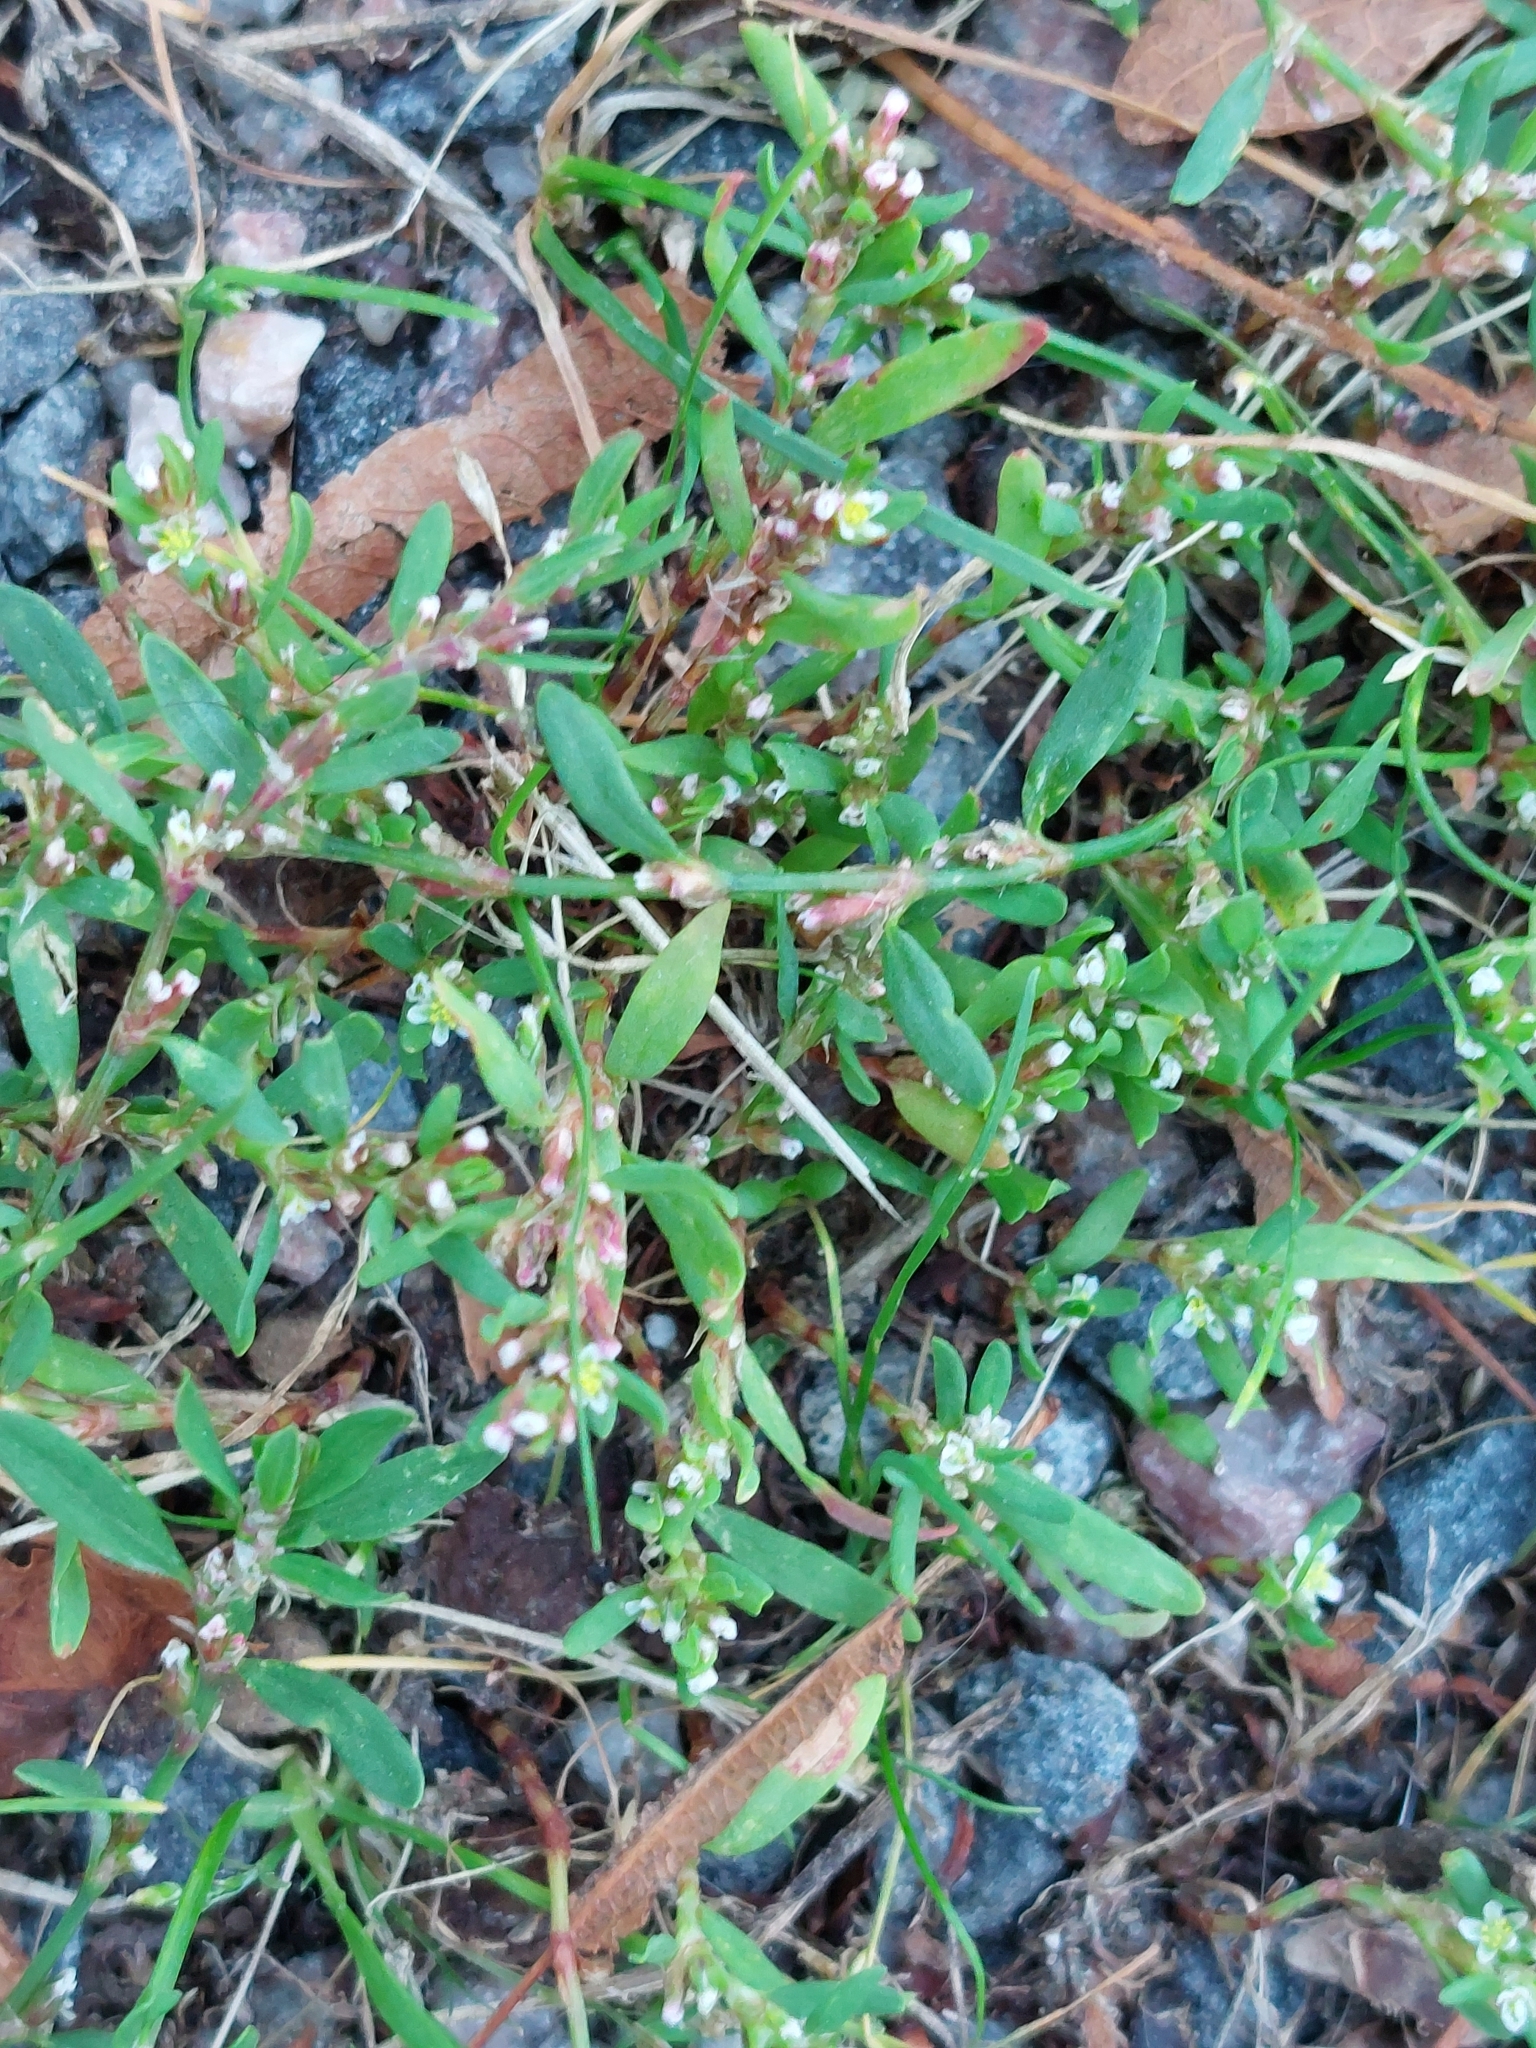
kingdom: Plantae
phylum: Tracheophyta
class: Magnoliopsida
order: Caryophyllales
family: Polygonaceae
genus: Polygonum
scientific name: Polygonum aviculare
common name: Prostrate knotweed
